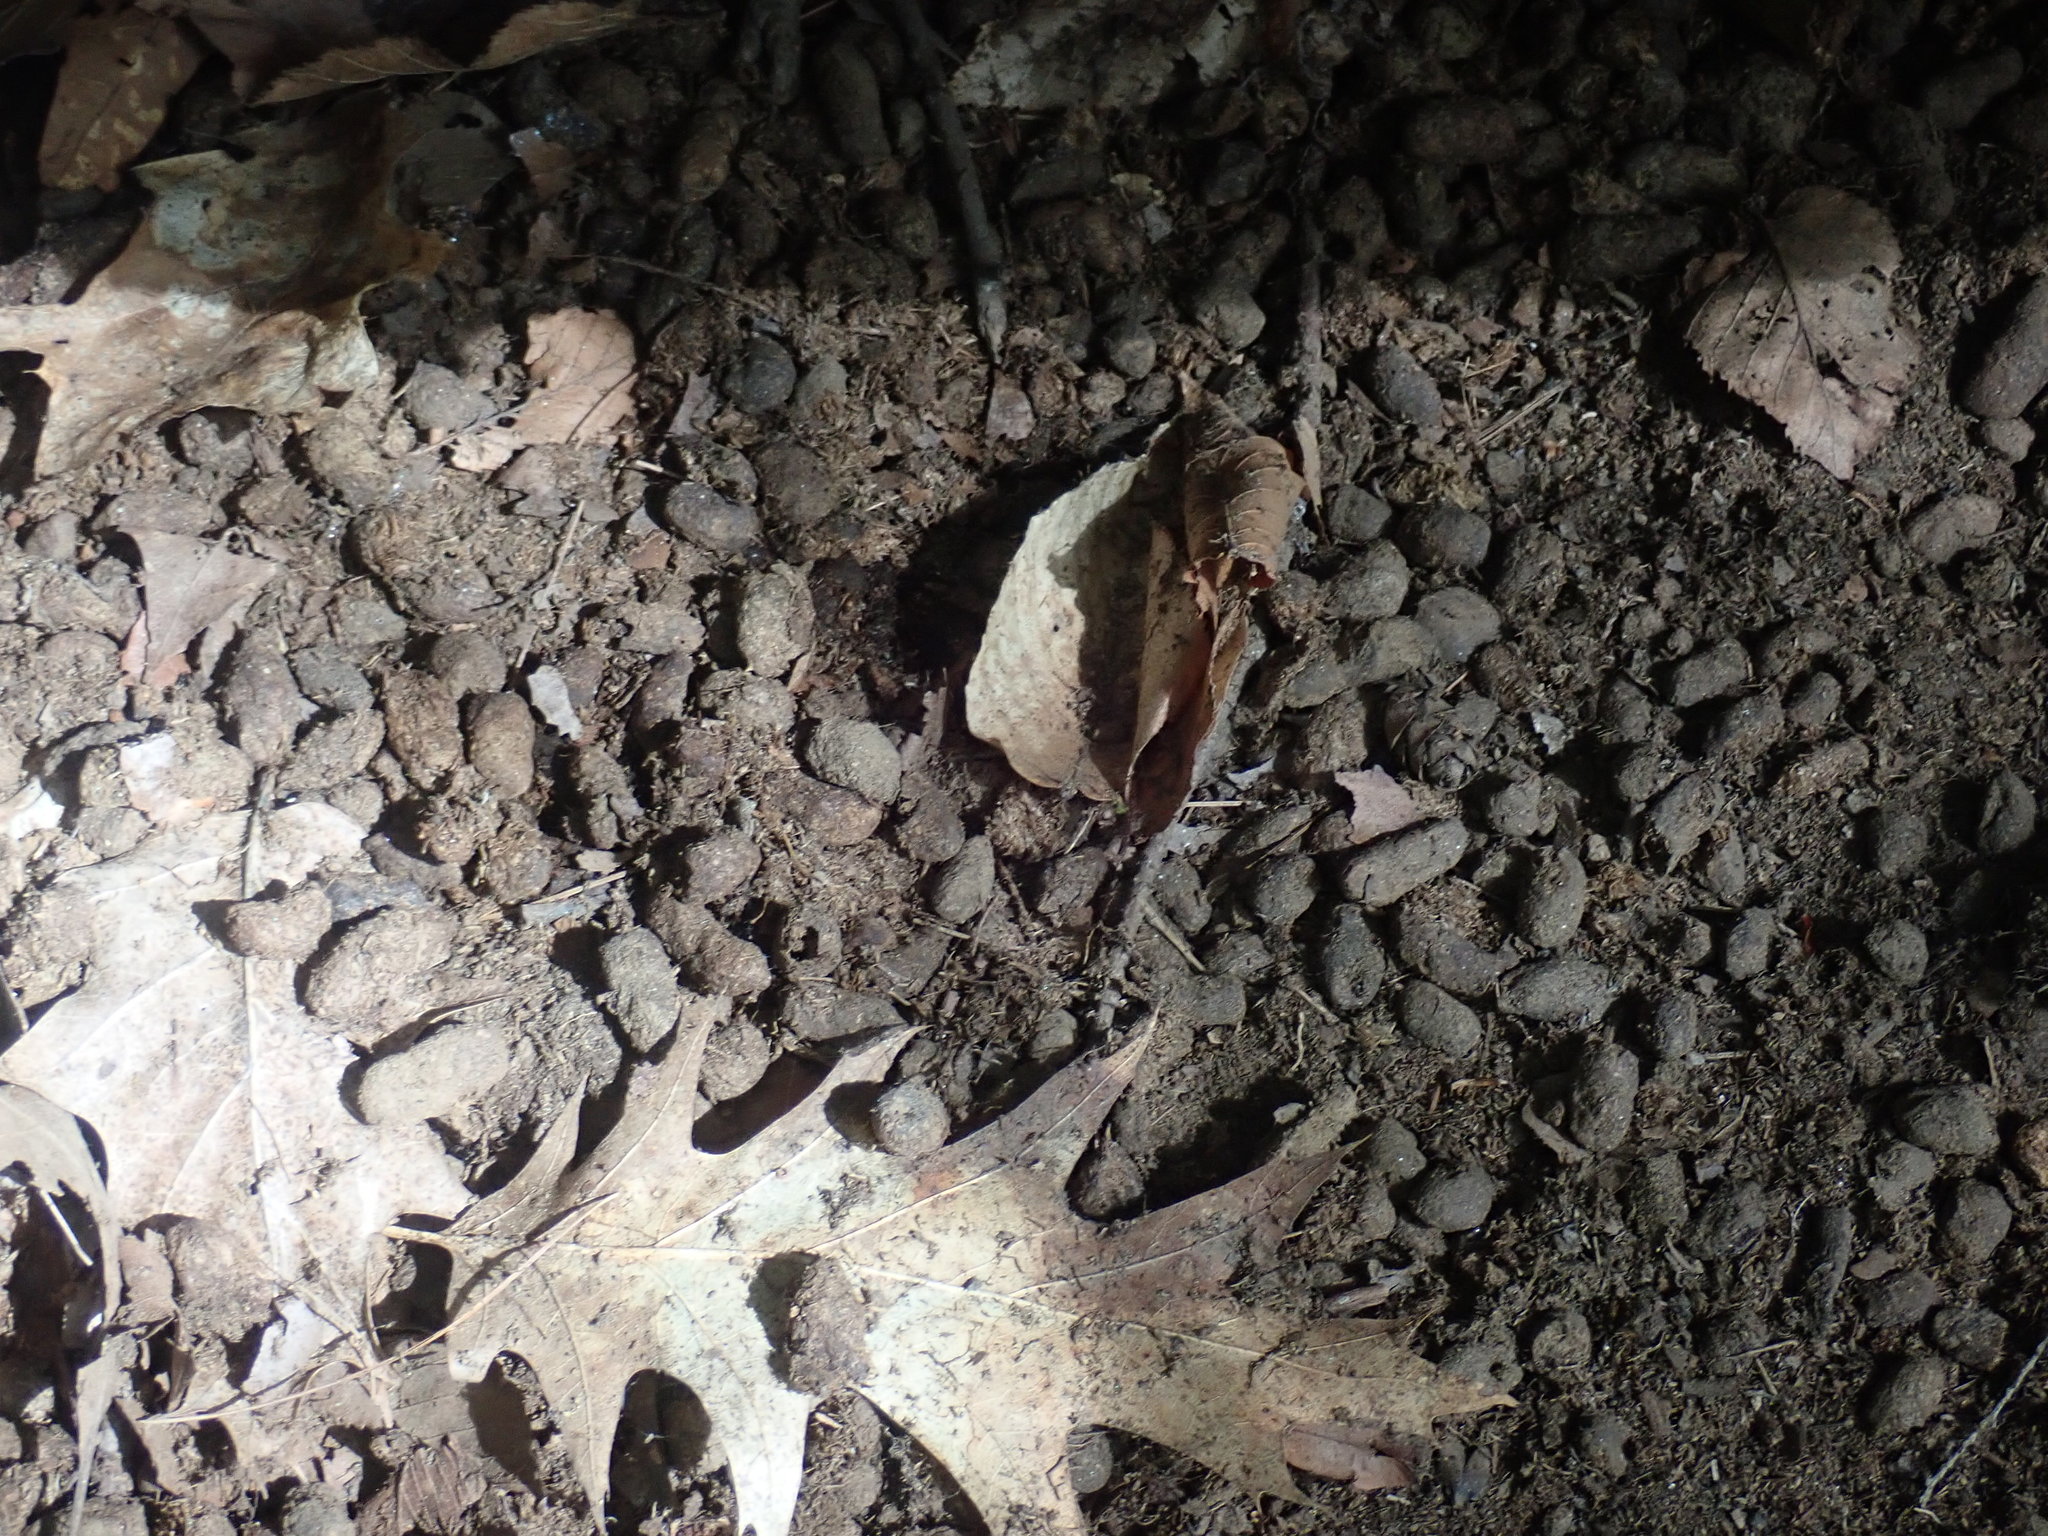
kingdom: Animalia
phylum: Chordata
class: Mammalia
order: Rodentia
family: Erethizontidae
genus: Erethizon
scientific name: Erethizon dorsatus
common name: North american porcupine
